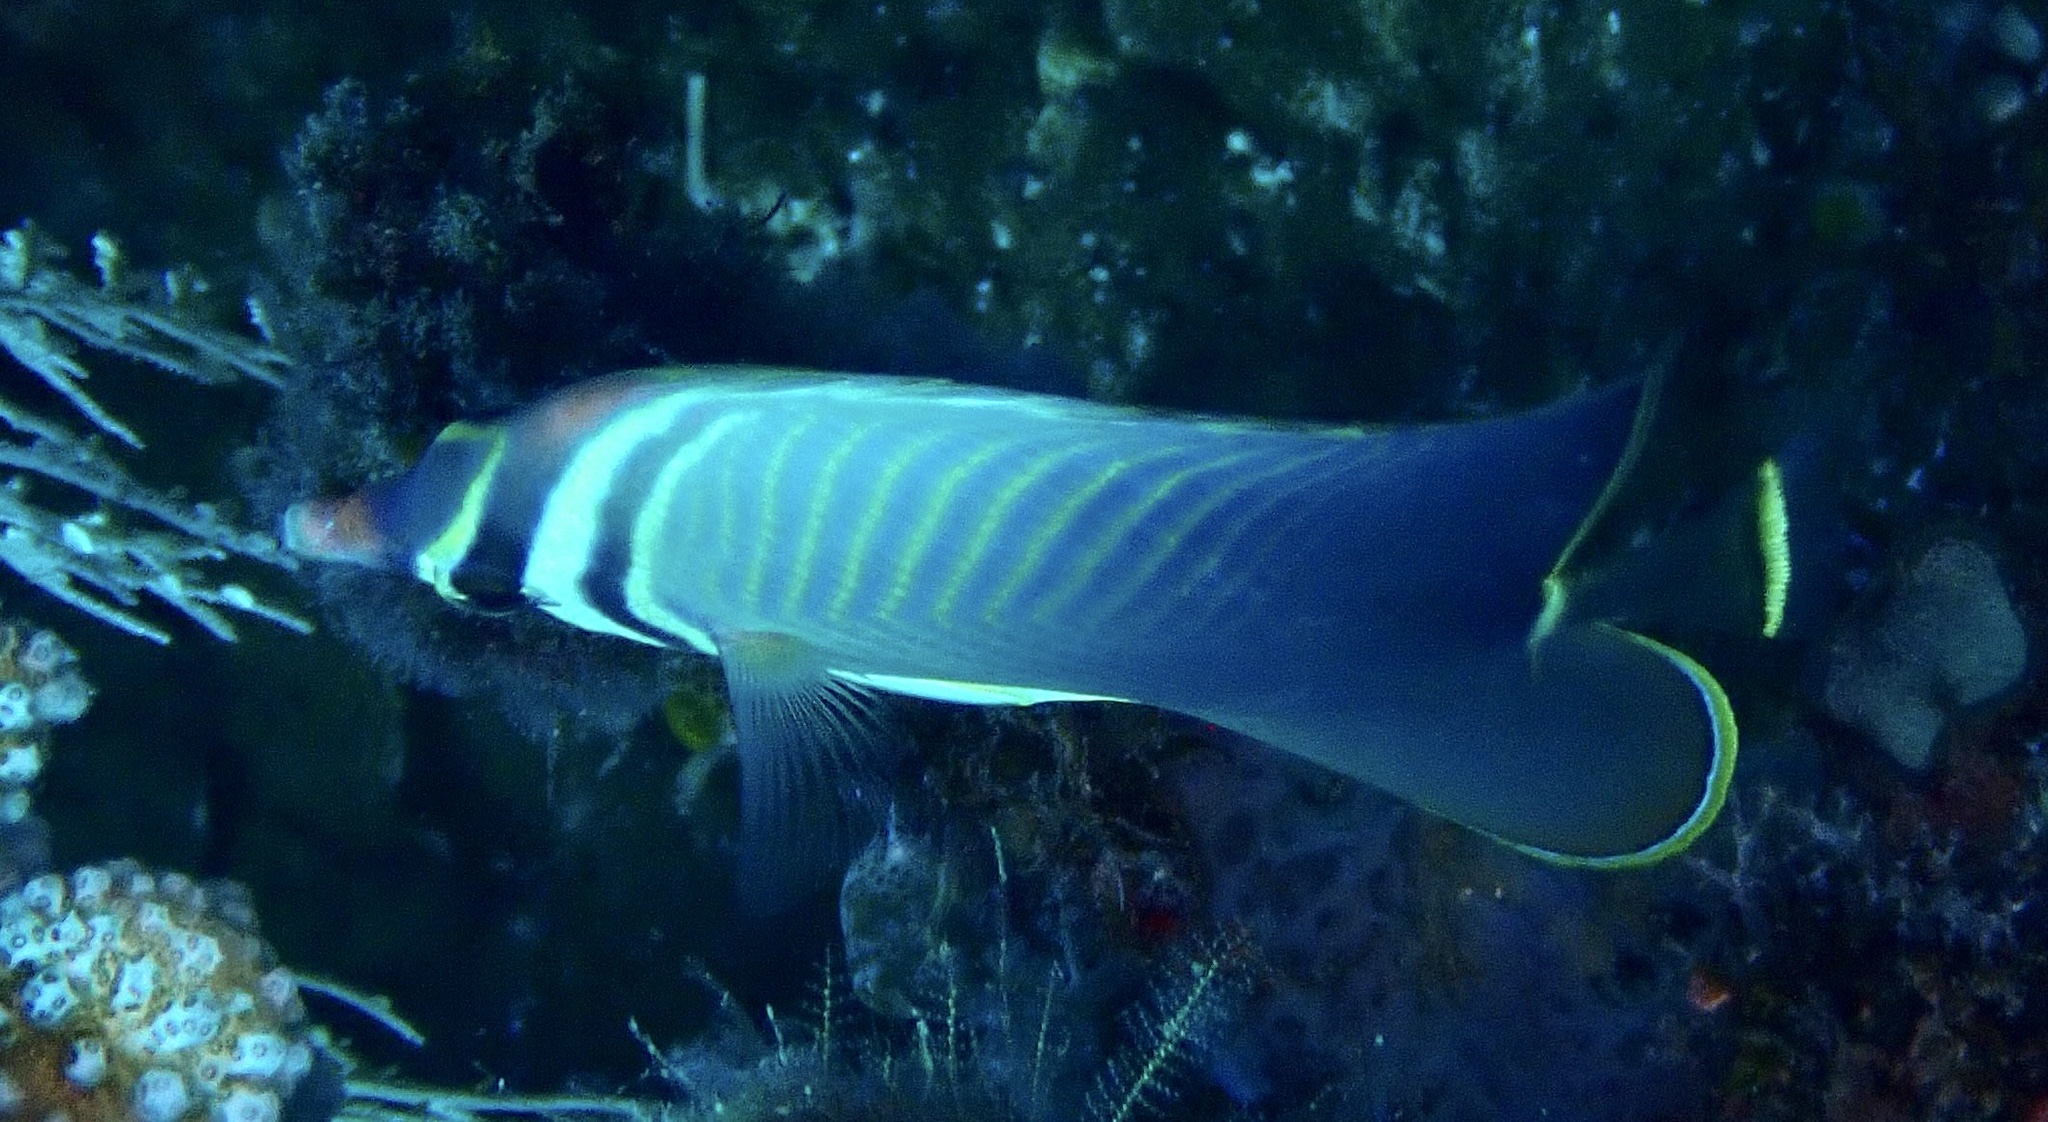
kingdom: Animalia
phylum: Chordata
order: Perciformes
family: Chaetodontidae
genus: Chaetodon
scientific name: Chaetodon baronessa
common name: Triangular butterflyfish
